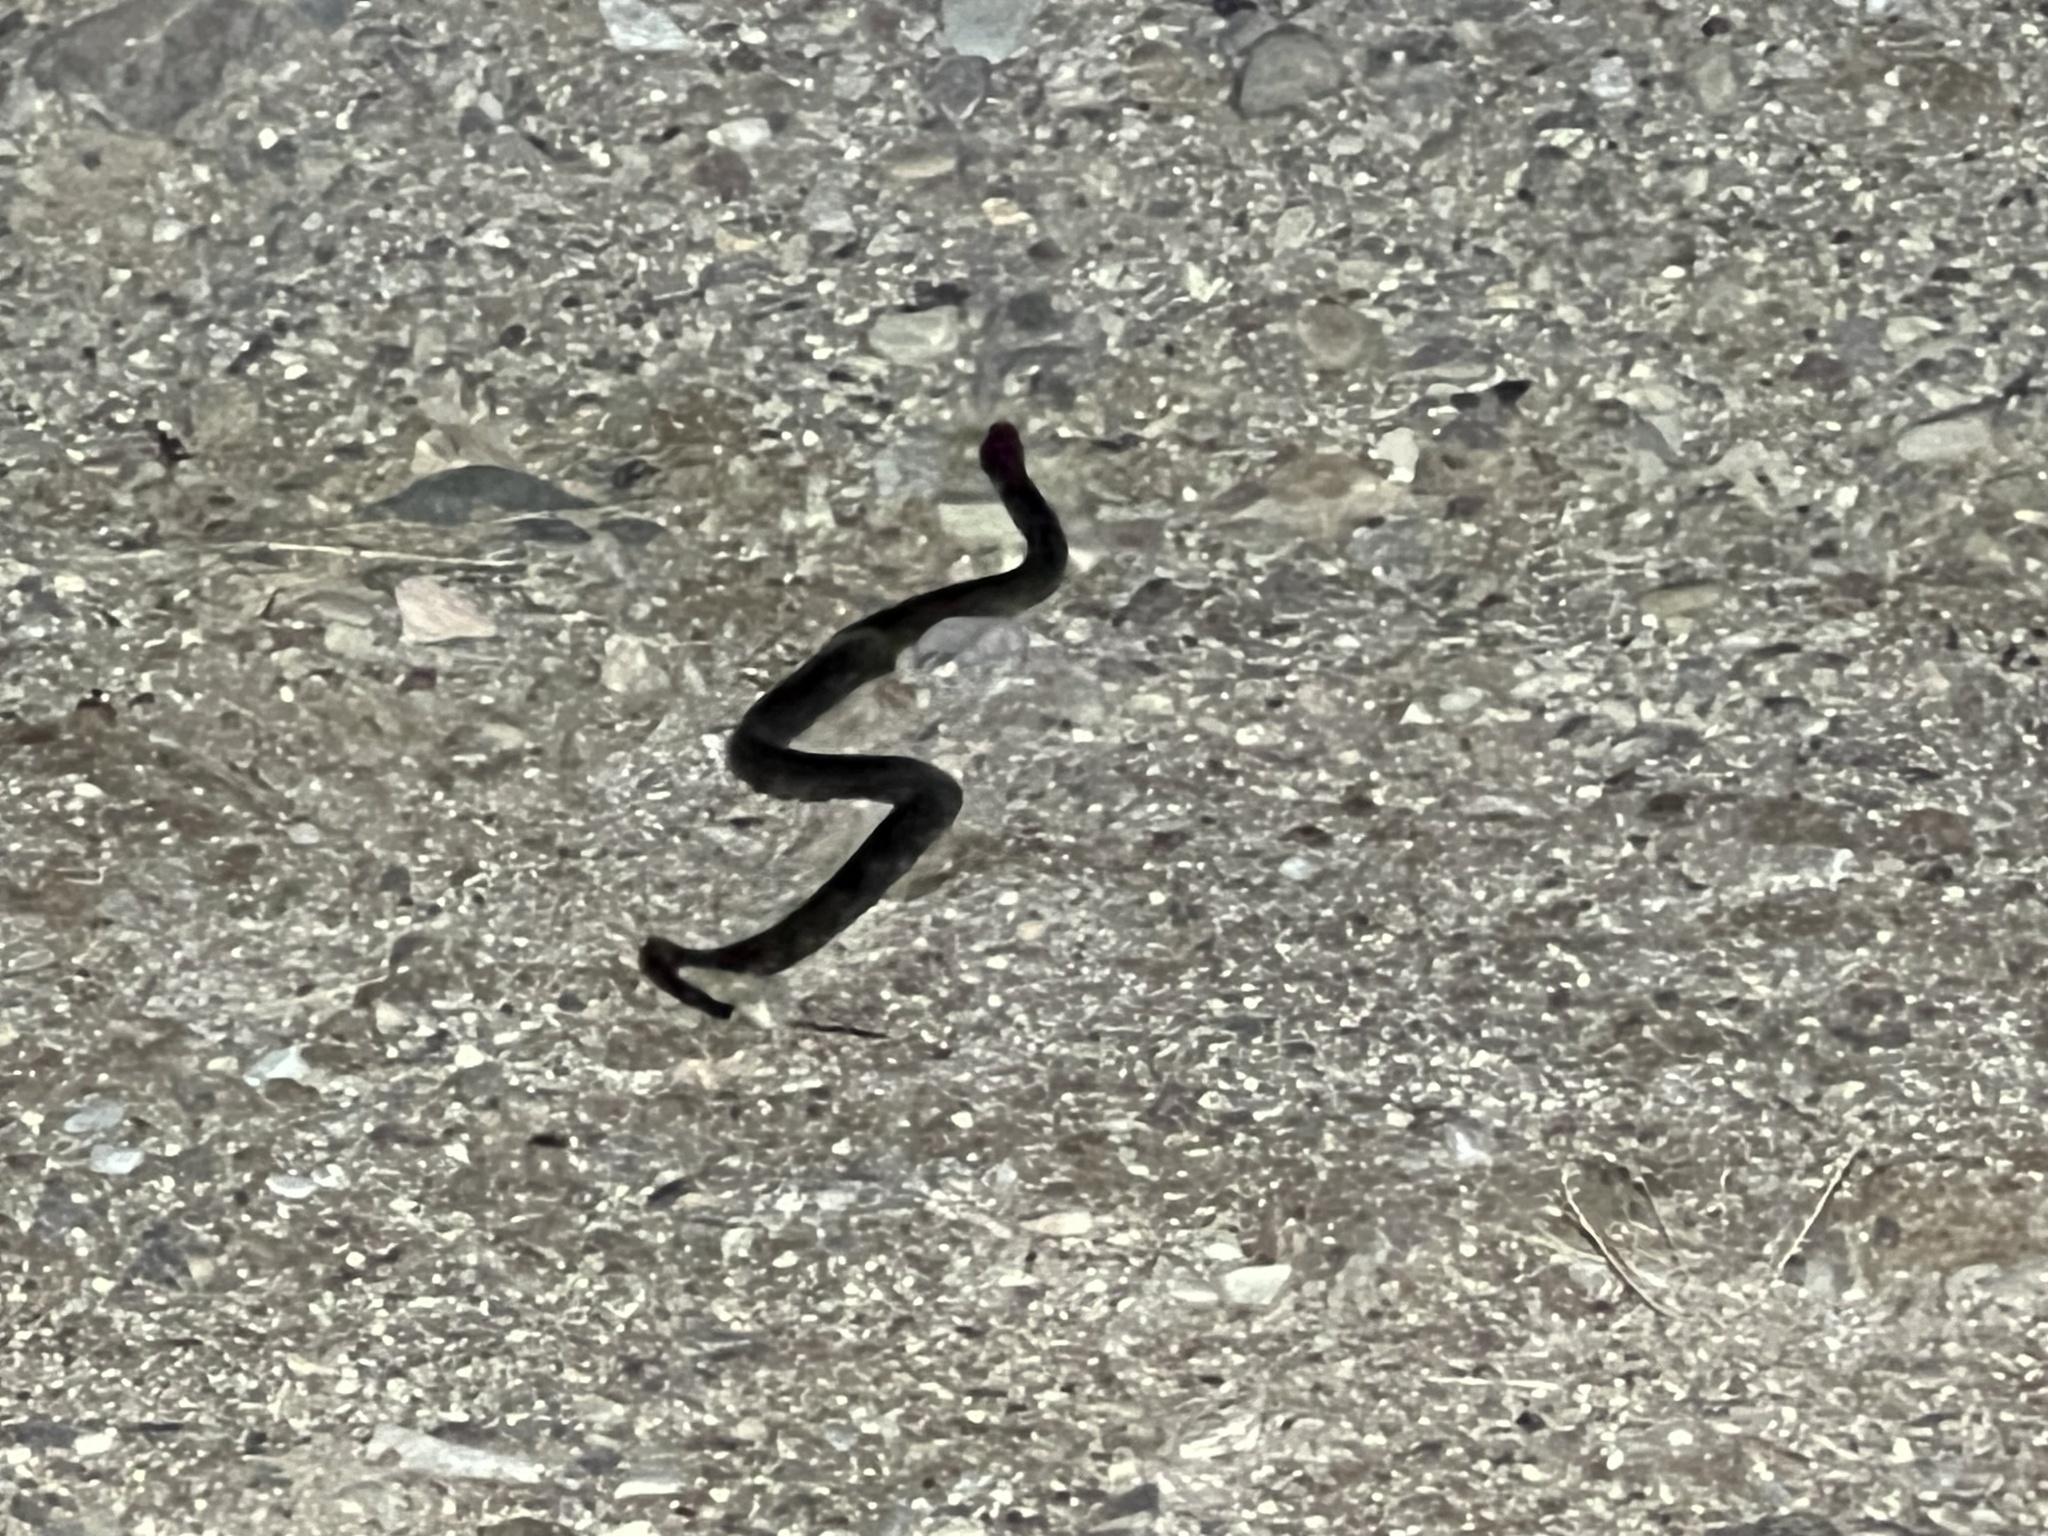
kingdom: Animalia
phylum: Chordata
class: Squamata
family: Colubridae
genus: Lampropeltis
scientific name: Lampropeltis splendida
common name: Desert kingsnake
